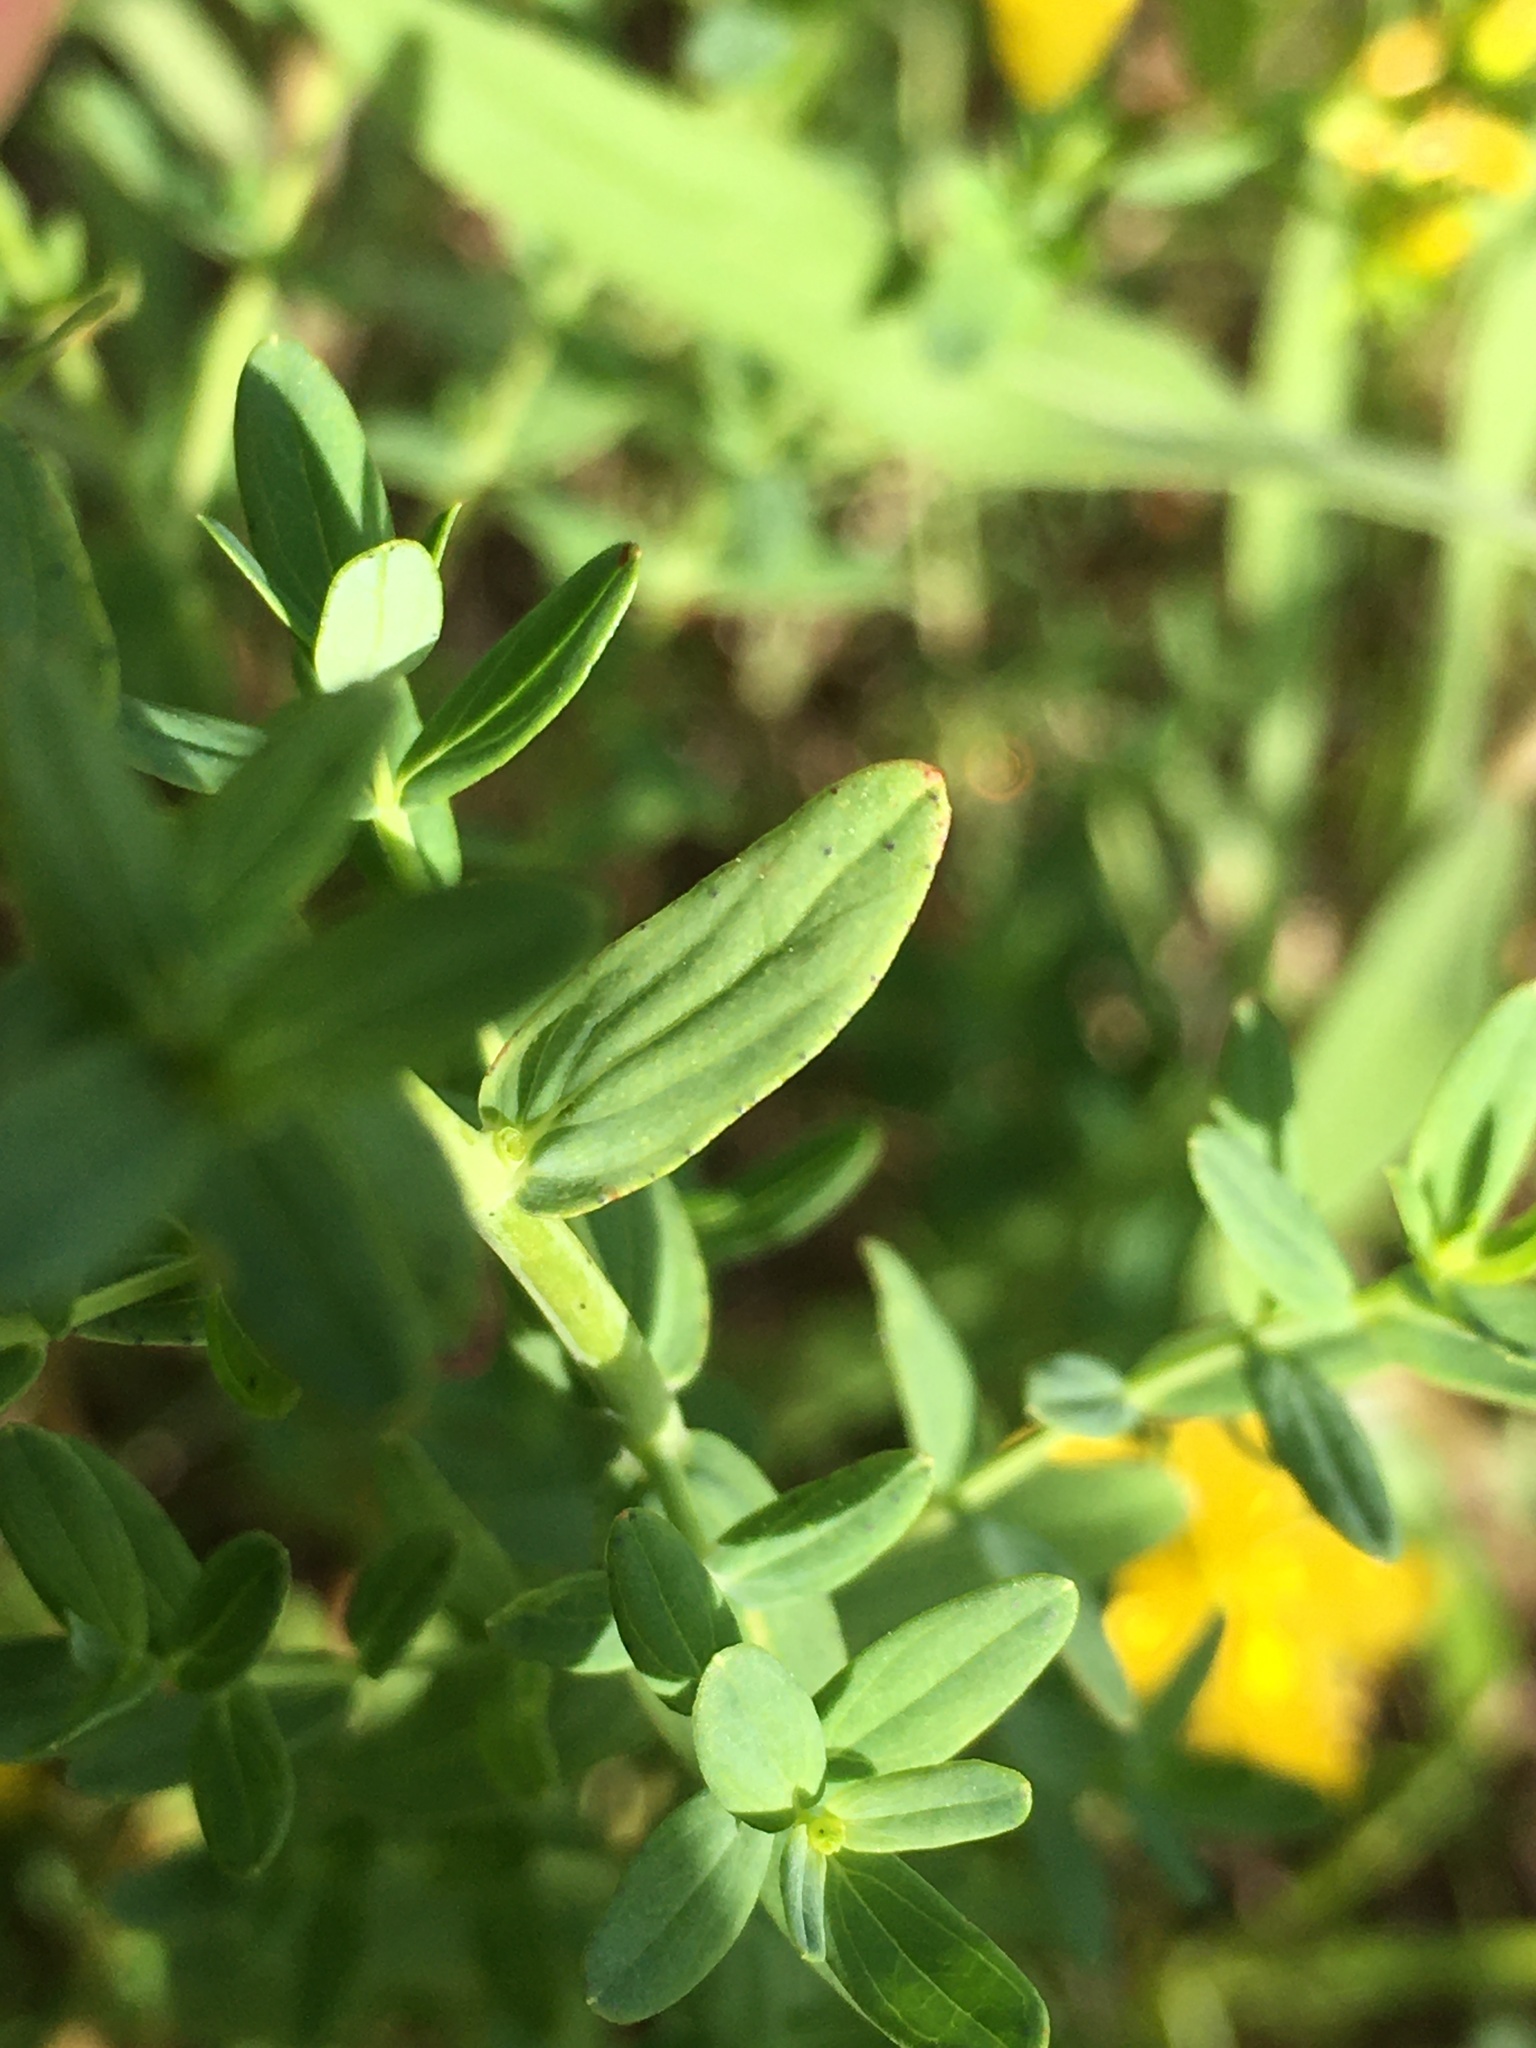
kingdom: Plantae
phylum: Tracheophyta
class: Magnoliopsida
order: Malpighiales
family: Hypericaceae
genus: Hypericum
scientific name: Hypericum perforatum
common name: Common st. johnswort
